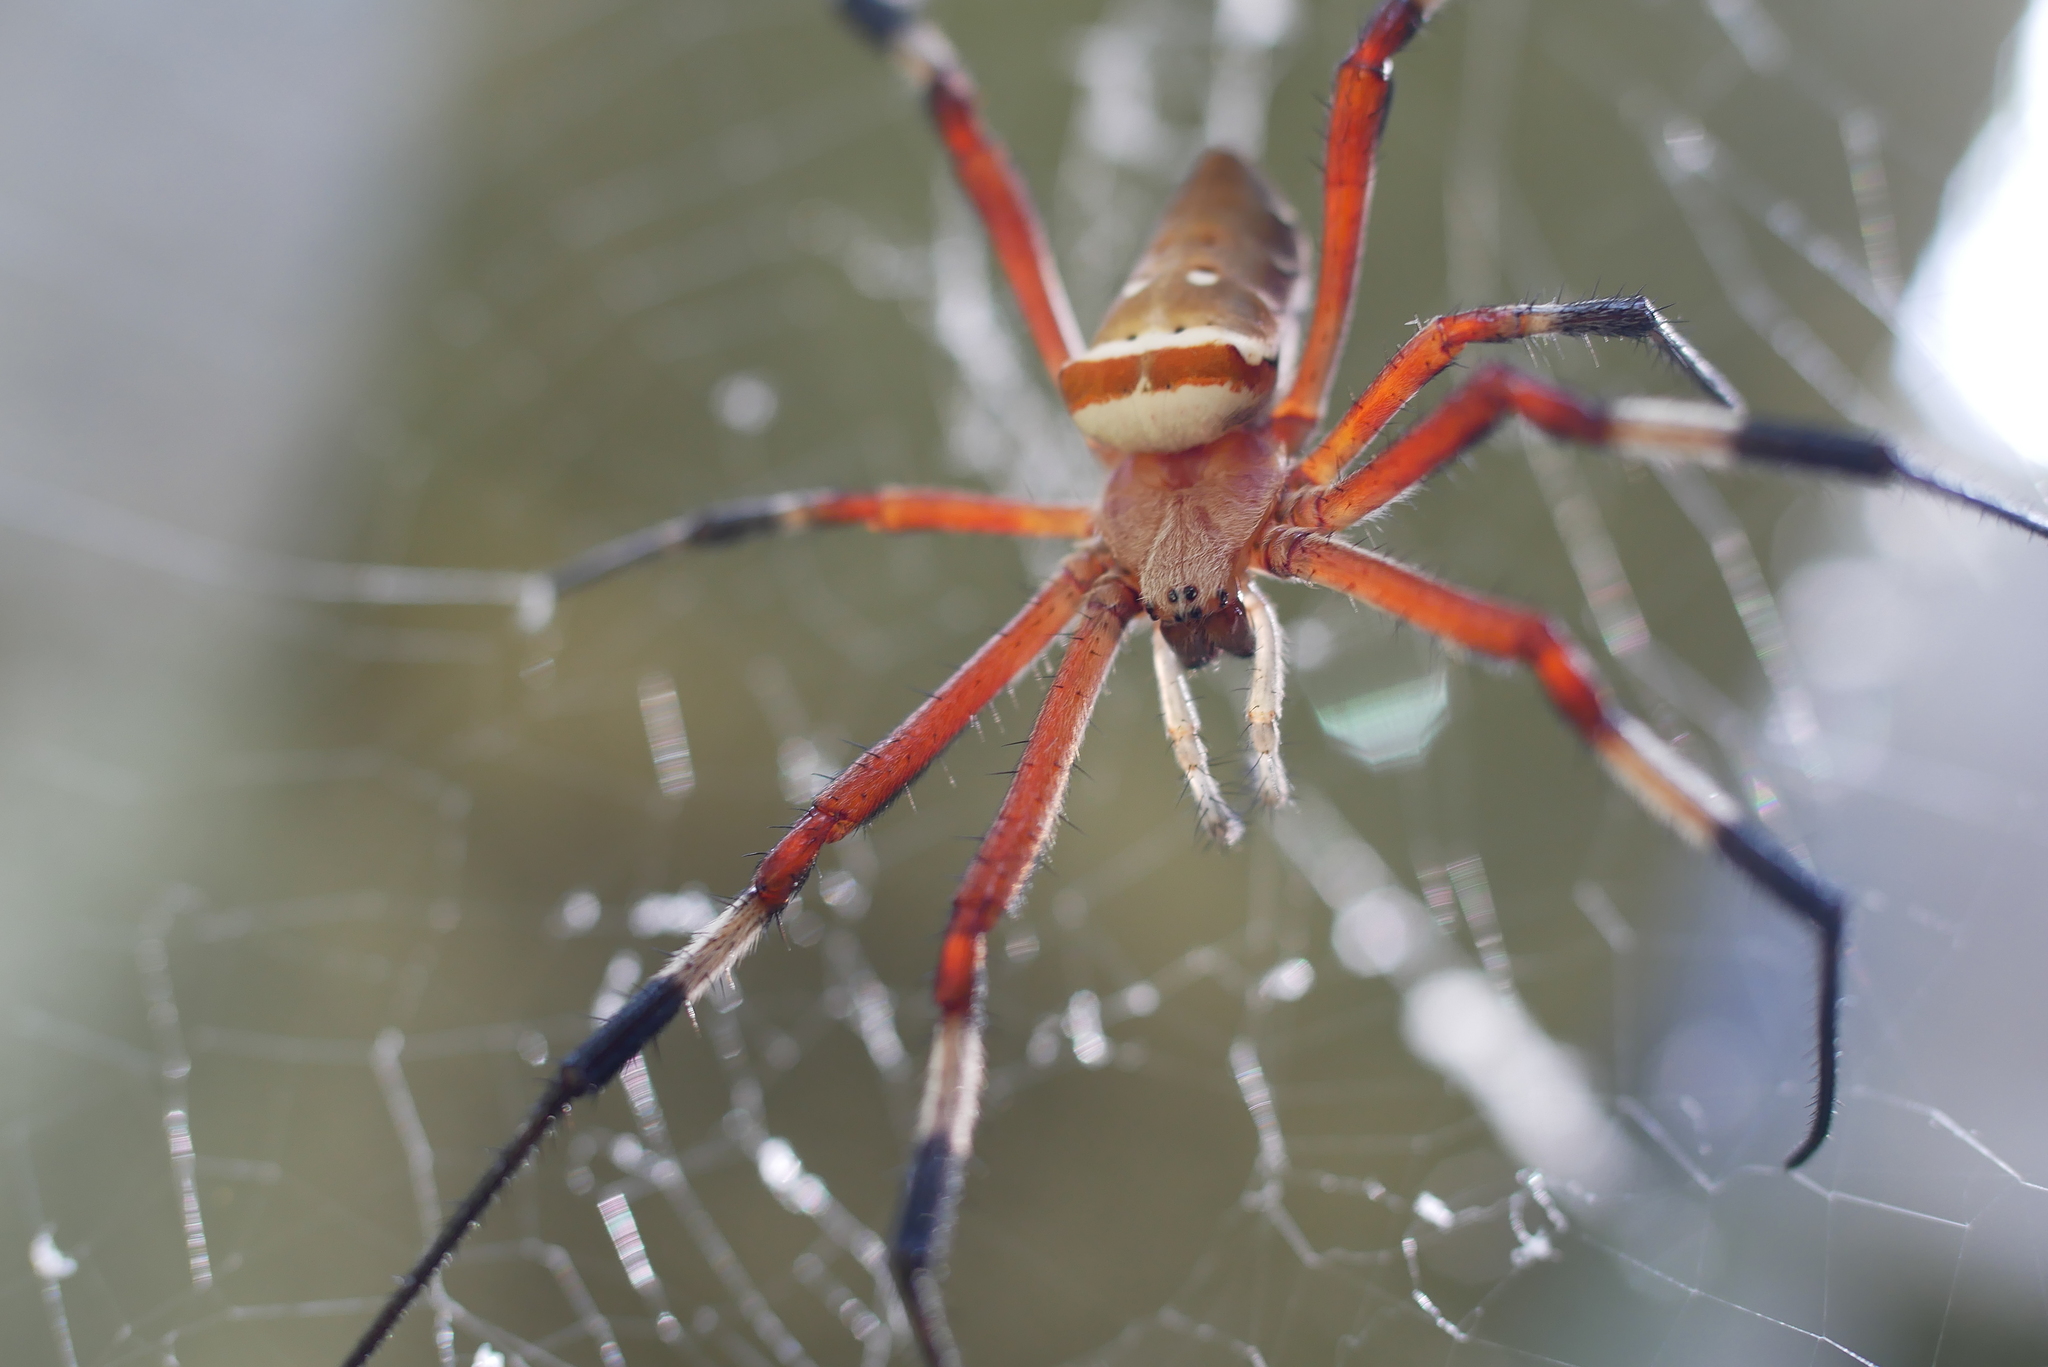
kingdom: Animalia
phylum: Arthropoda
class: Arachnida
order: Araneae
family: Araneidae
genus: Argiope
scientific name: Argiope ocula
